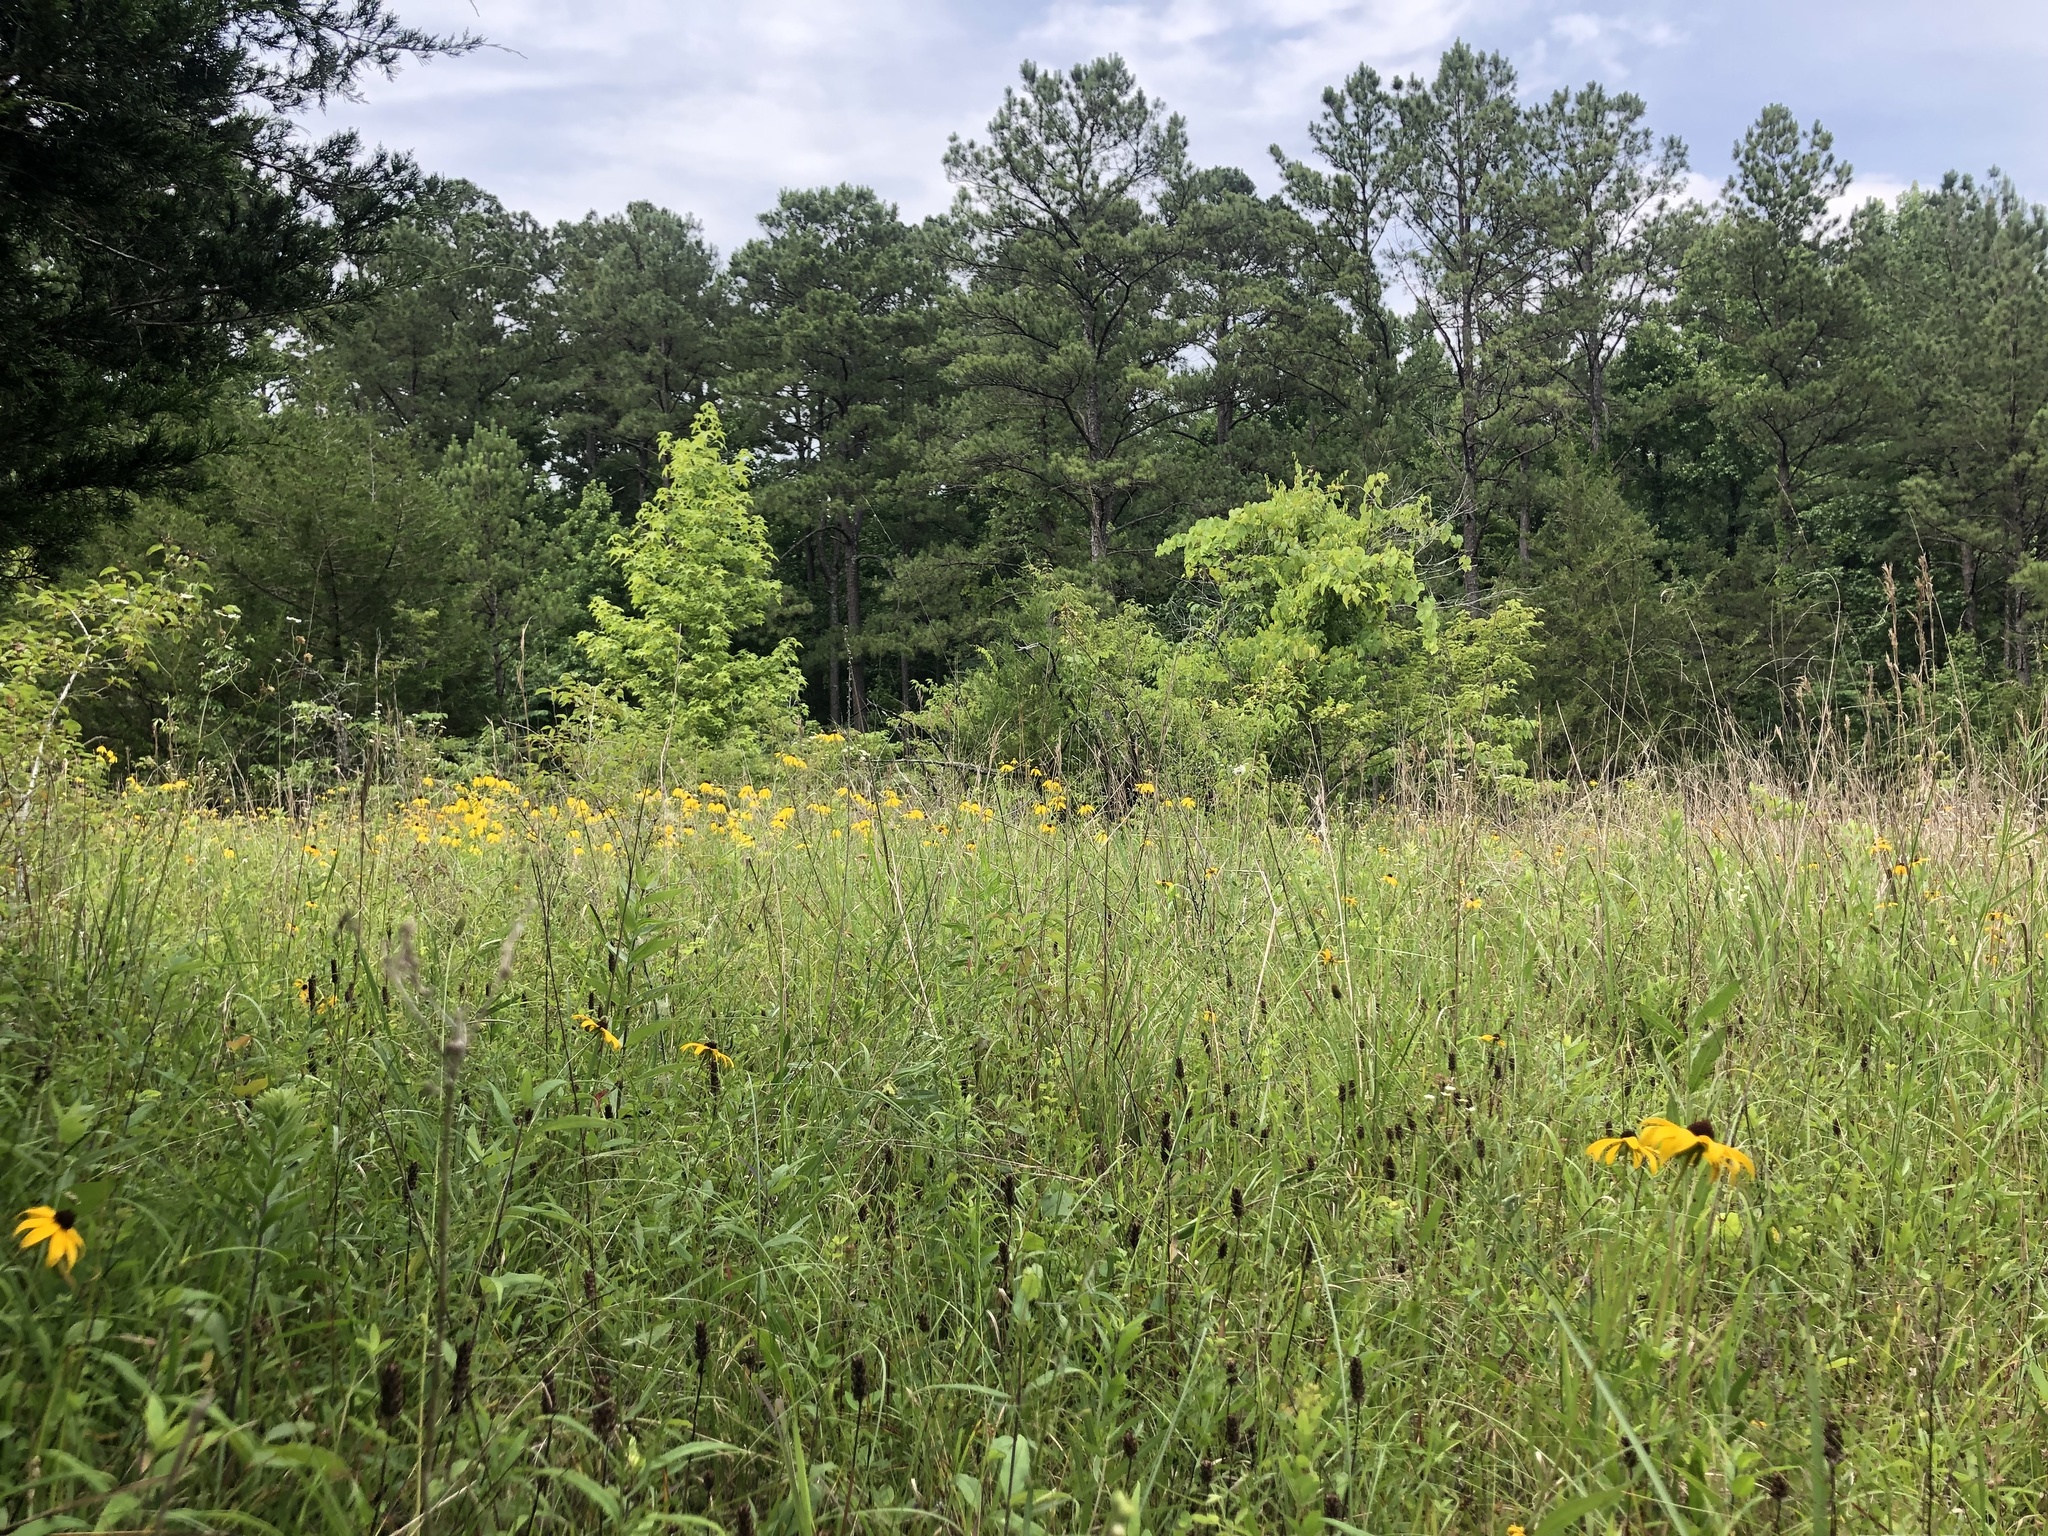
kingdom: Plantae
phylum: Tracheophyta
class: Magnoliopsida
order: Asterales
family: Asteraceae
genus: Ratibida
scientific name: Ratibida pinnata
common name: Drooping prairie-coneflower
